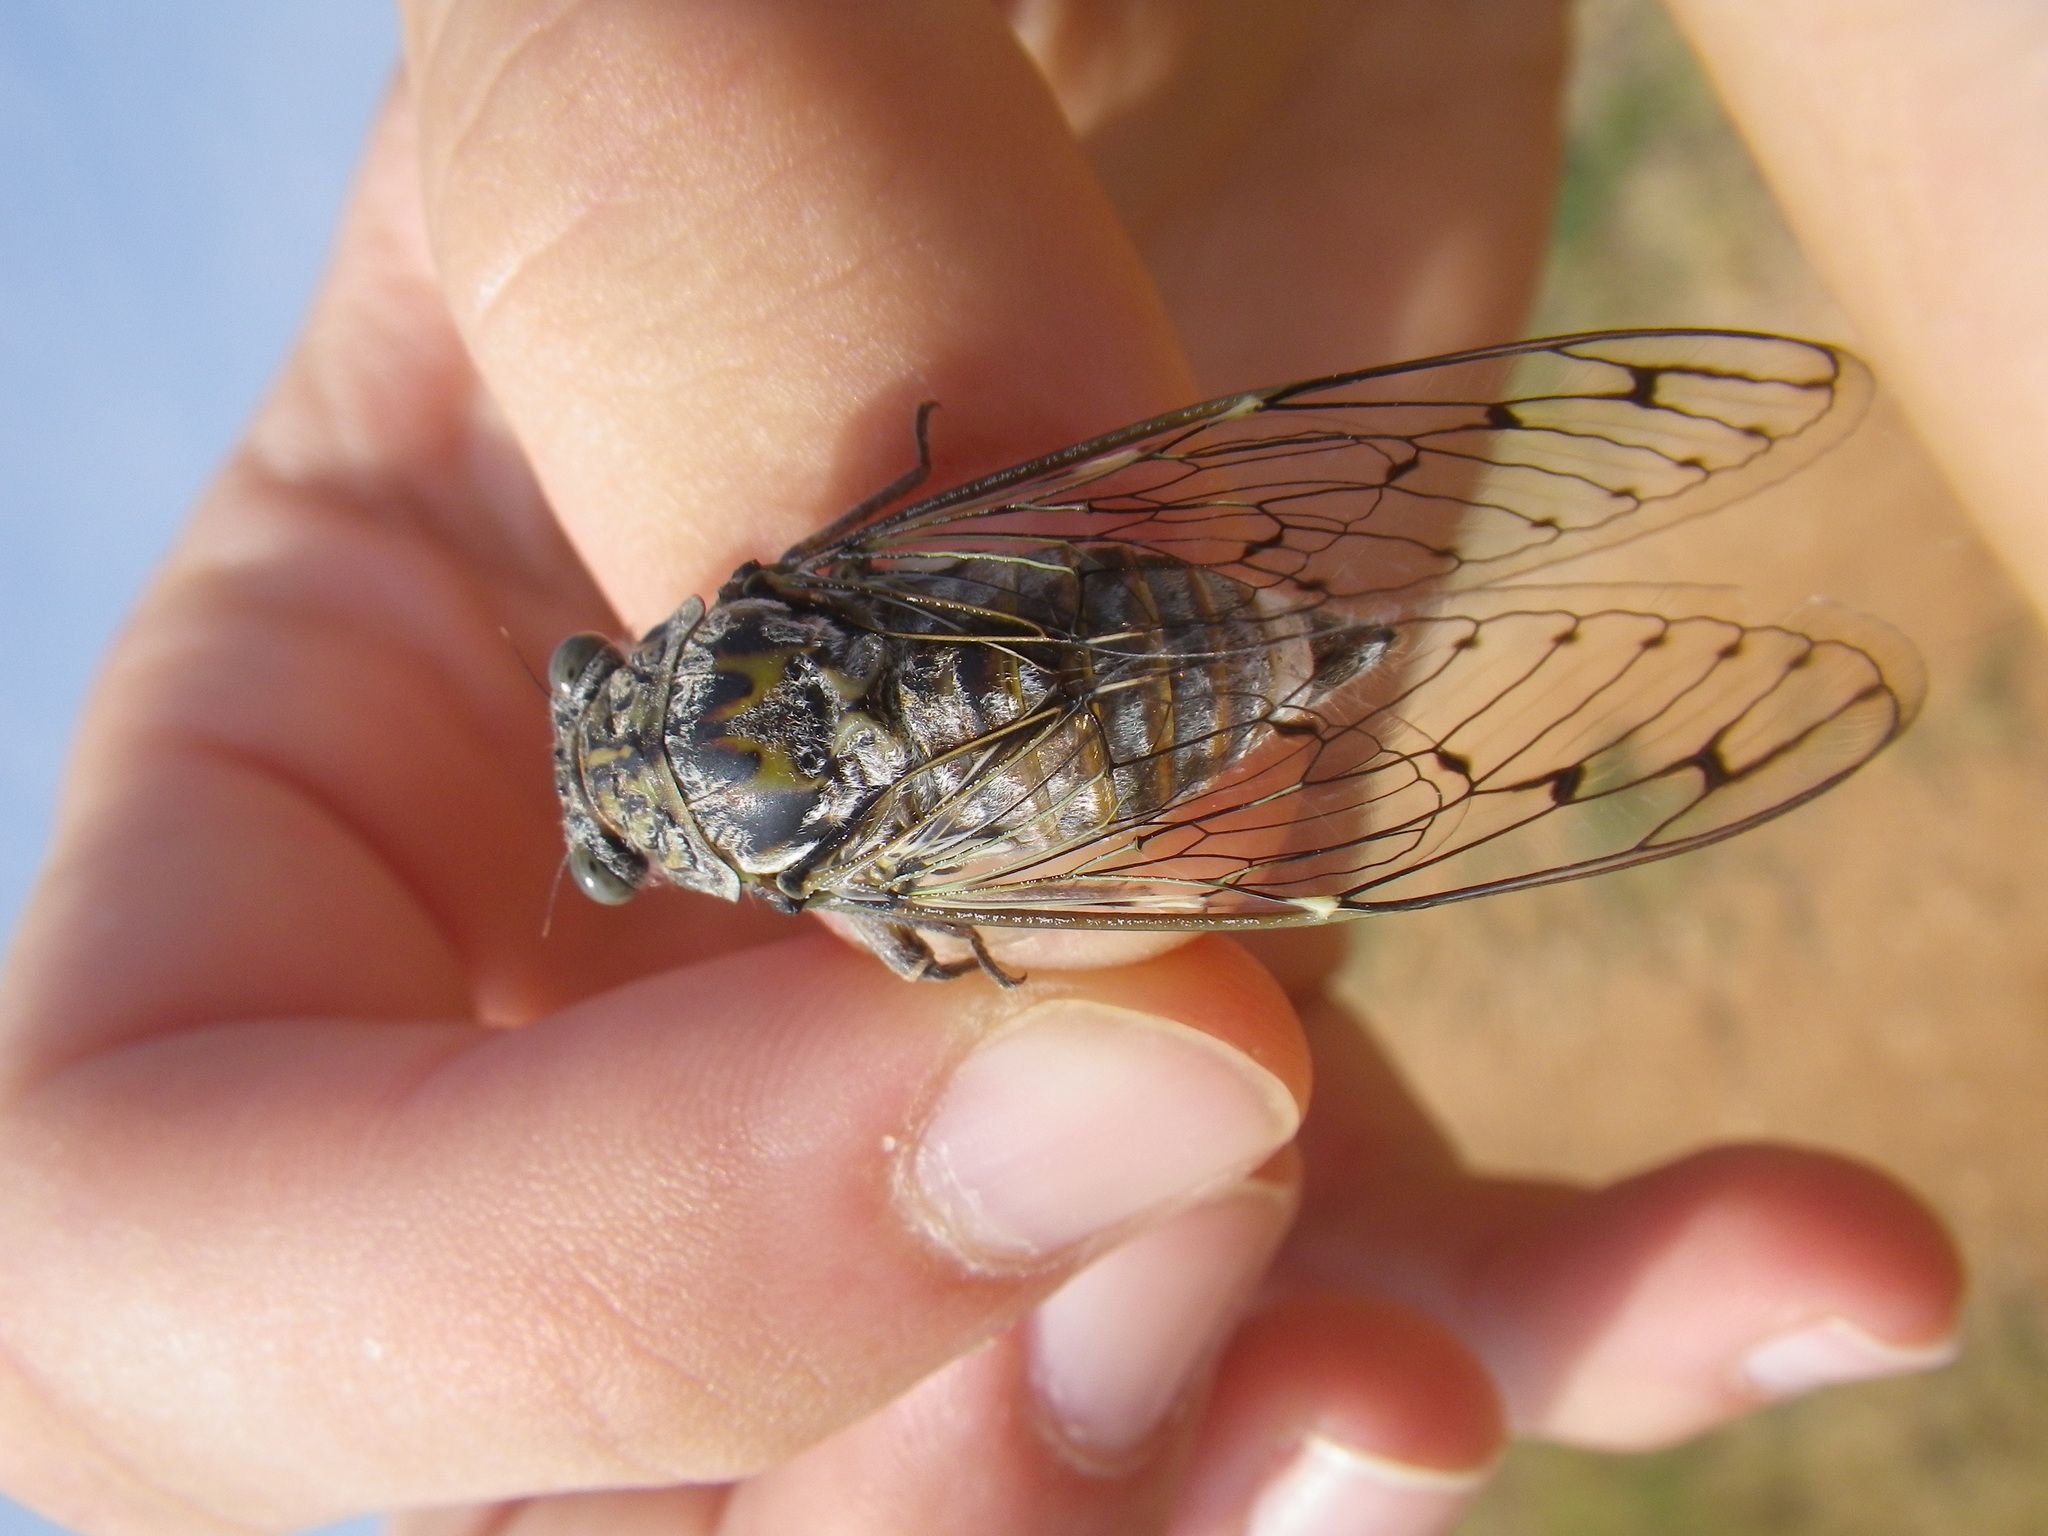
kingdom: Animalia
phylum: Arthropoda
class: Insecta
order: Hemiptera
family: Cicadidae
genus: Cicada
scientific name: Cicada orni
